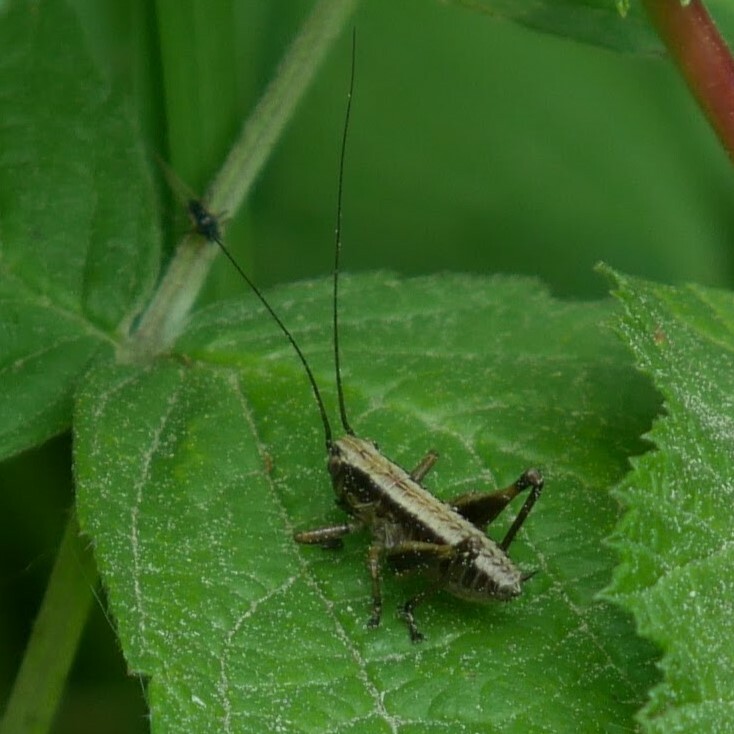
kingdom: Animalia
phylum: Arthropoda
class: Insecta
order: Orthoptera
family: Tettigoniidae
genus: Pholidoptera
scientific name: Pholidoptera griseoaptera
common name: Dark bush-cricket
